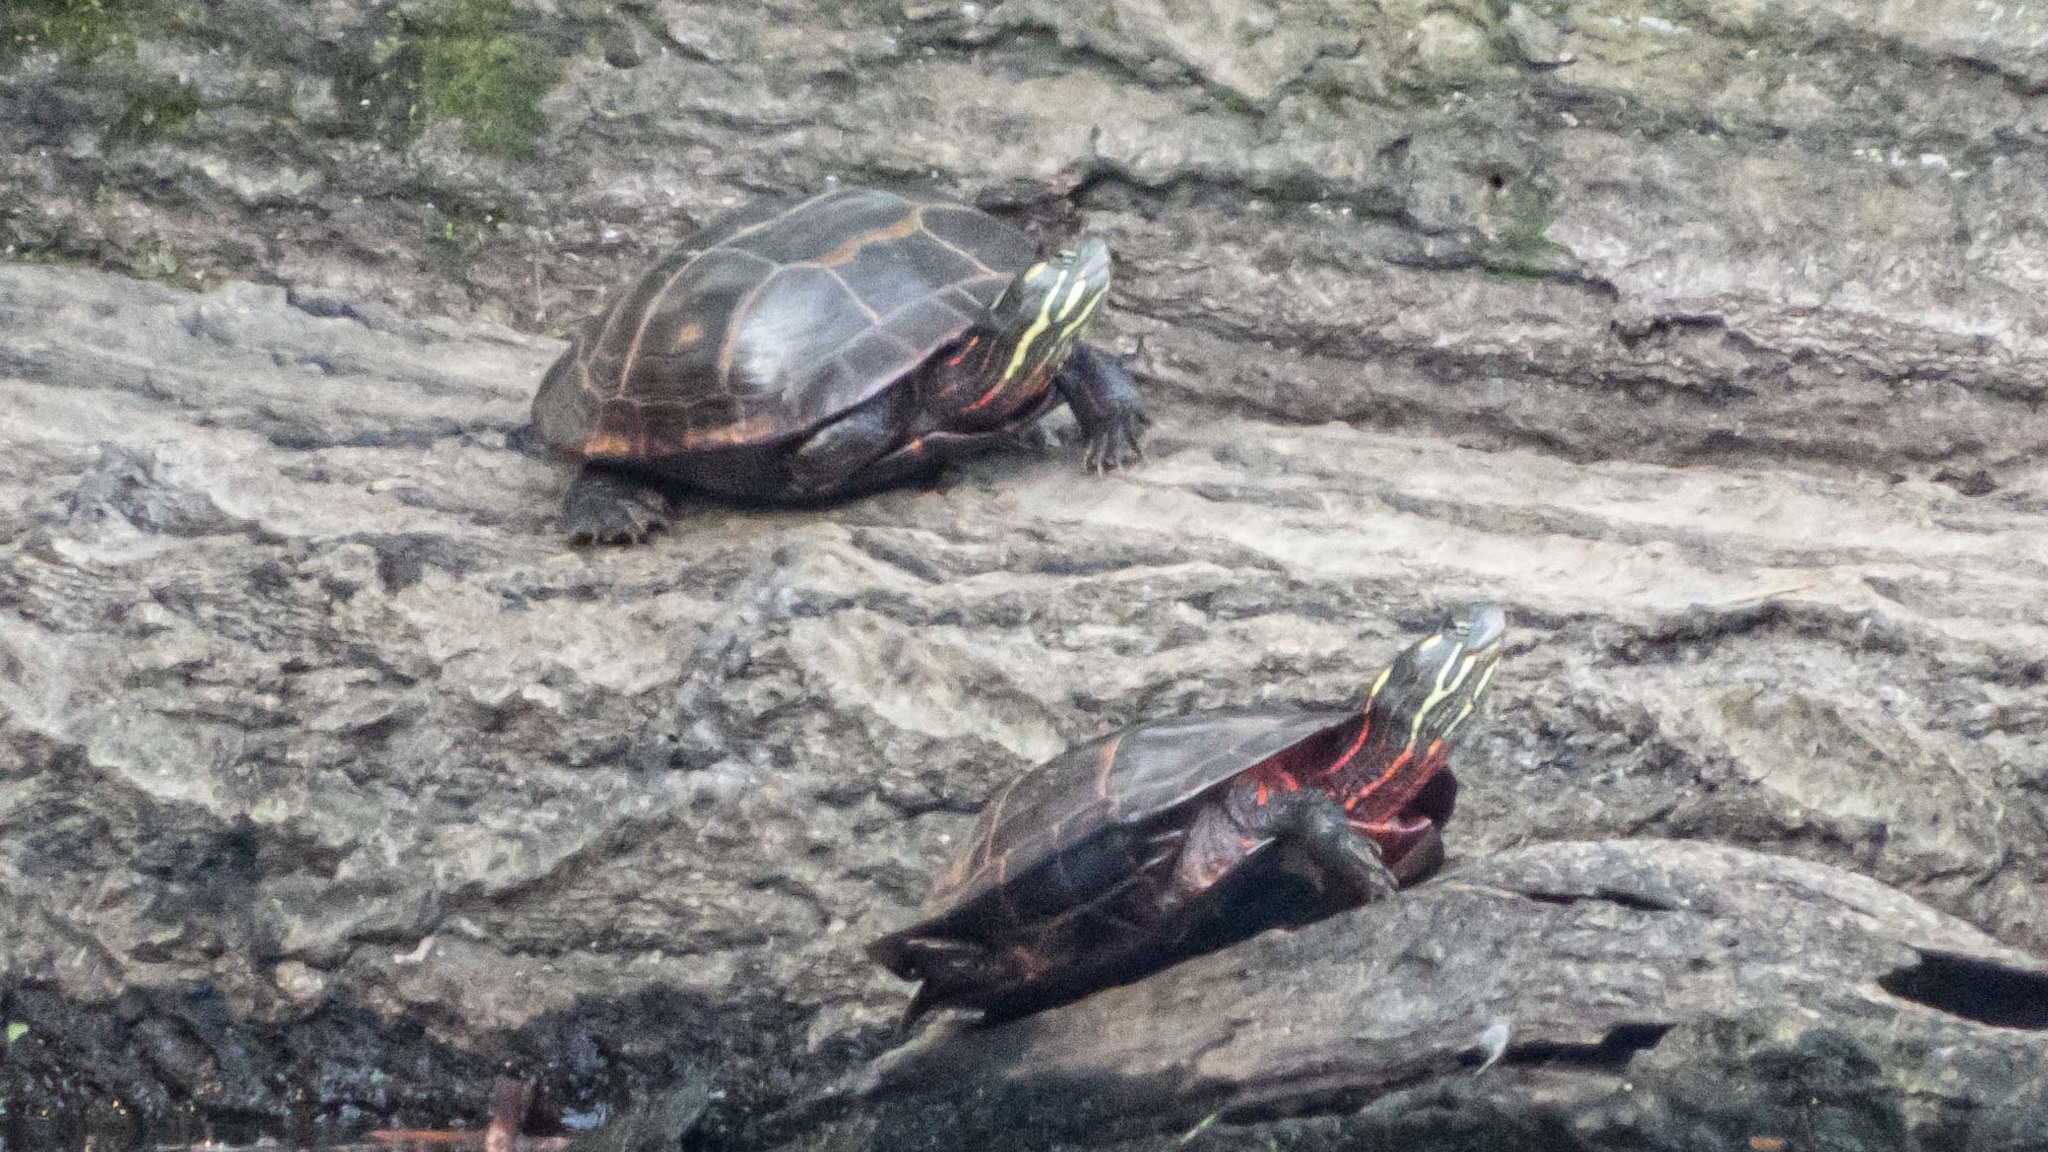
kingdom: Animalia
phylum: Chordata
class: Testudines
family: Emydidae
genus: Chrysemys
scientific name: Chrysemys picta
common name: Painted turtle
